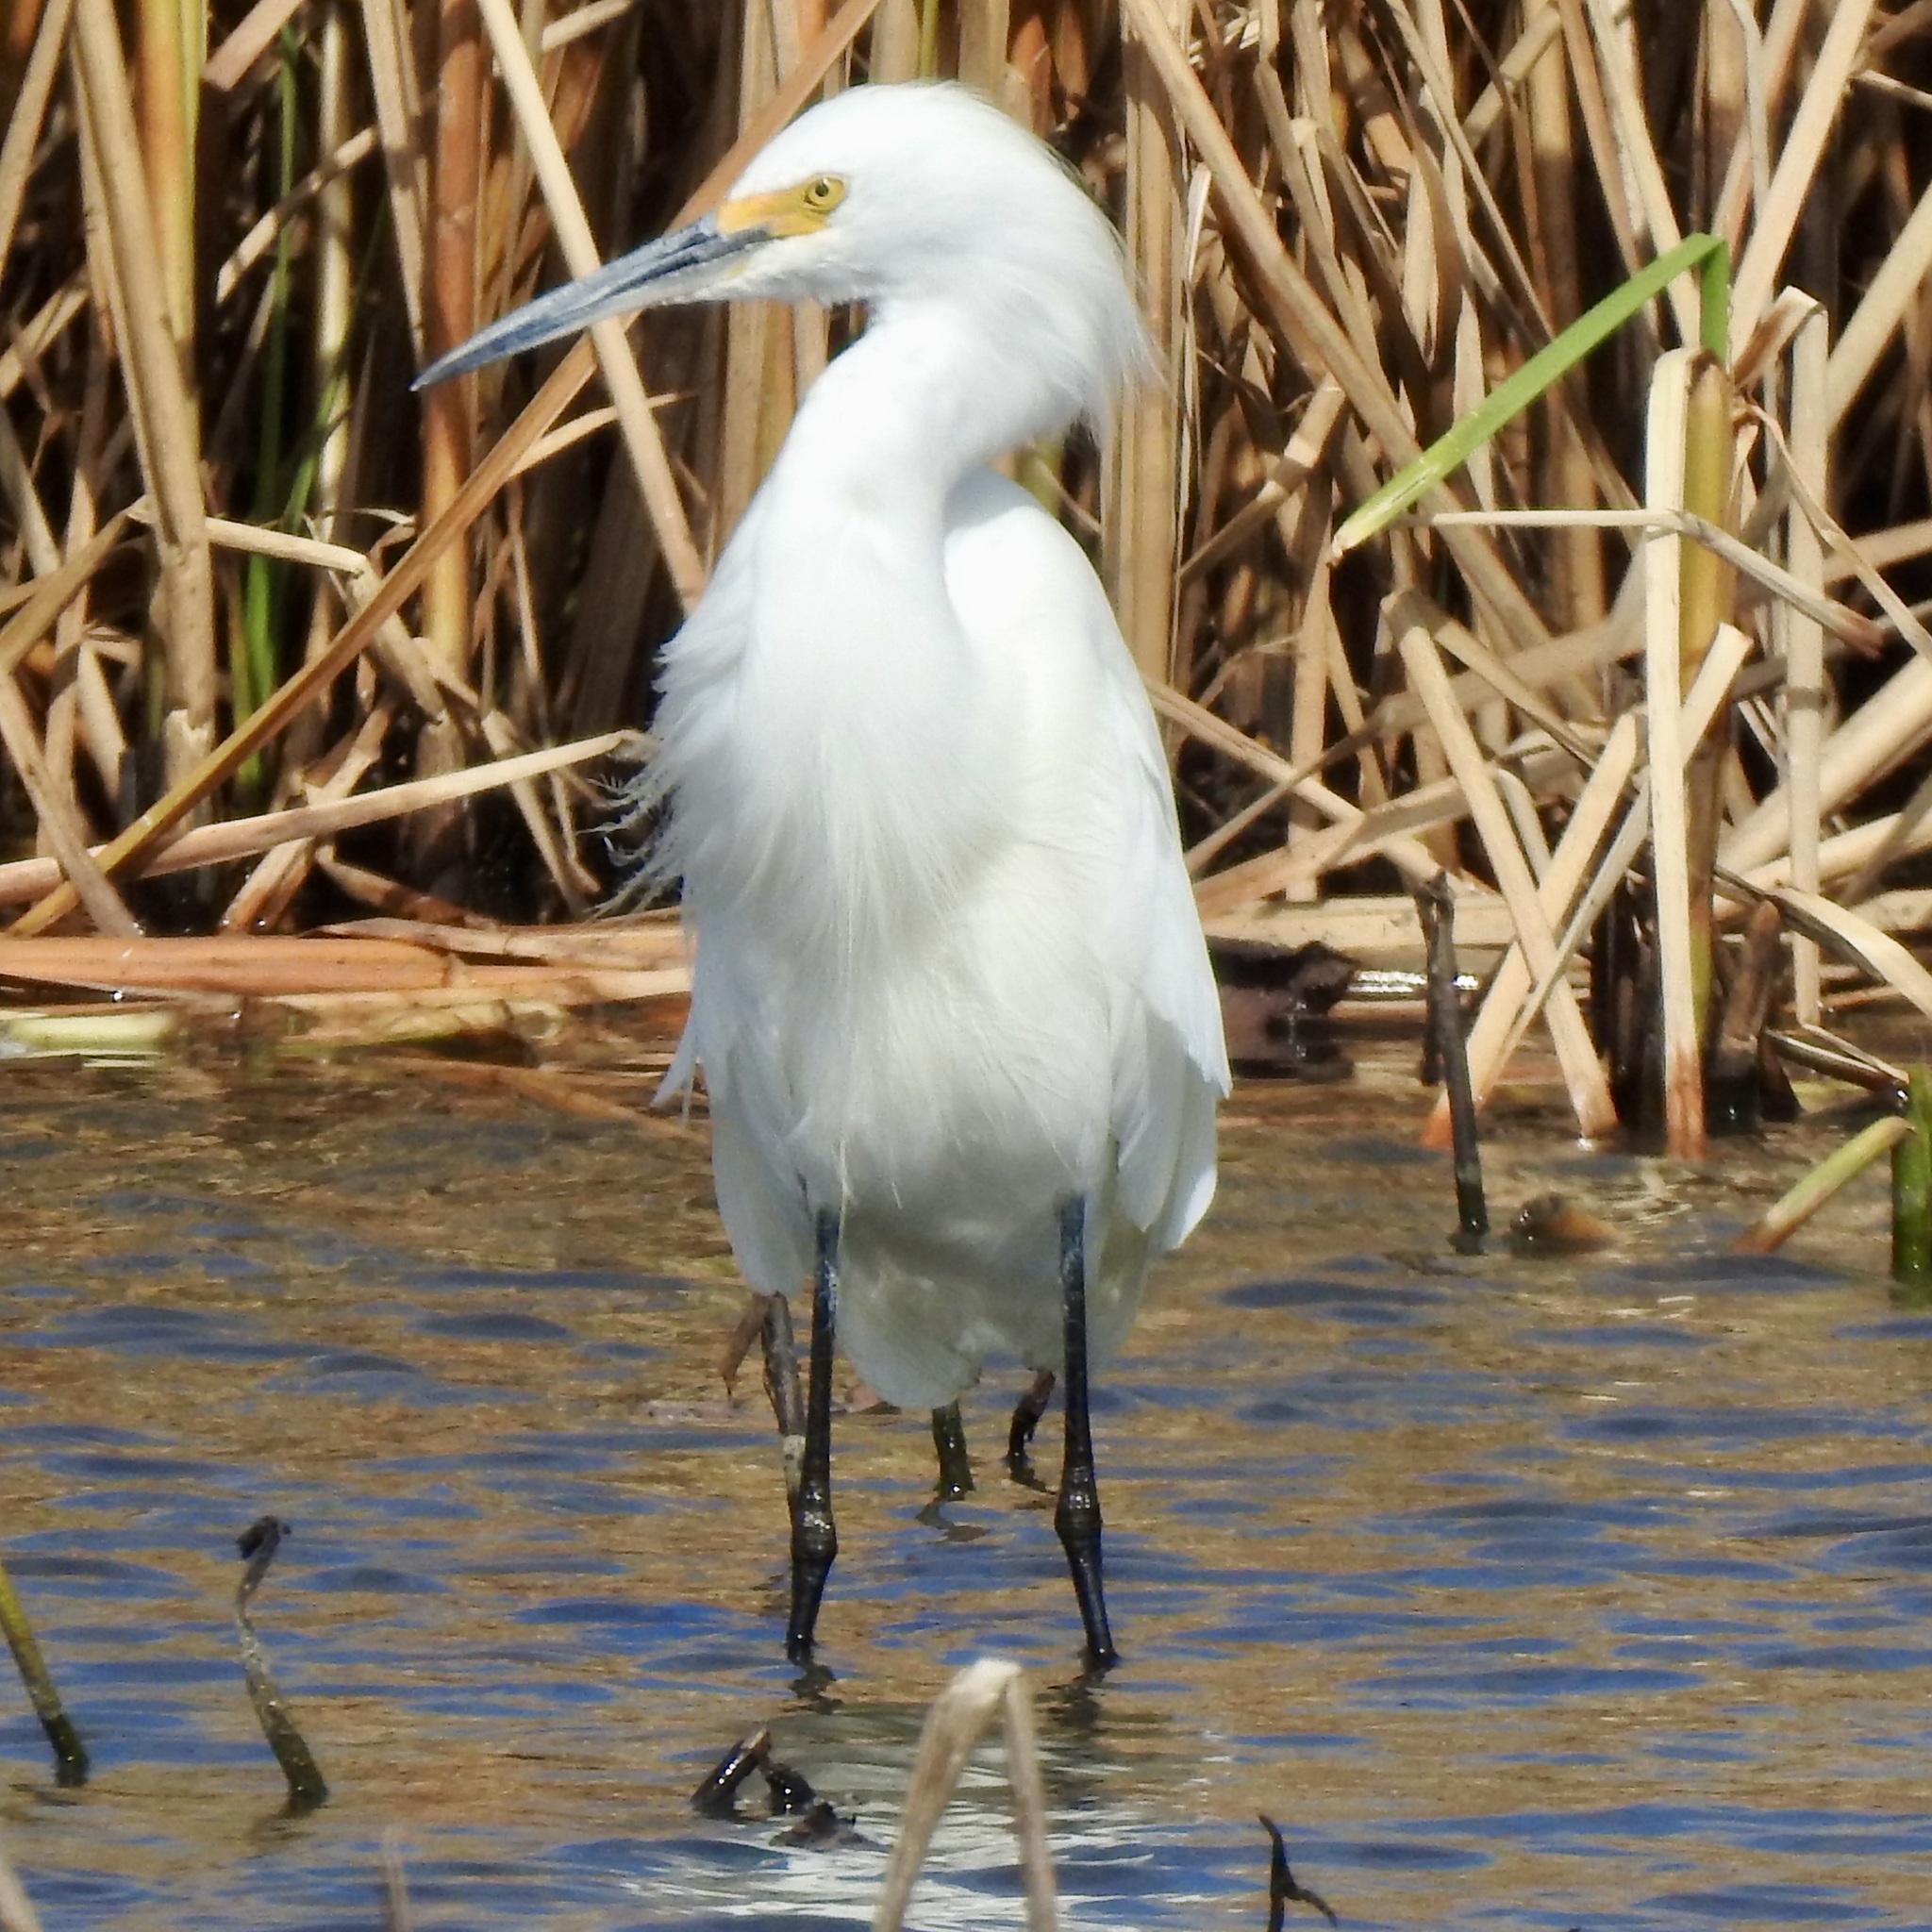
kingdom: Animalia
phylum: Chordata
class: Aves
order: Pelecaniformes
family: Ardeidae
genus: Egretta
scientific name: Egretta thula
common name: Snowy egret
